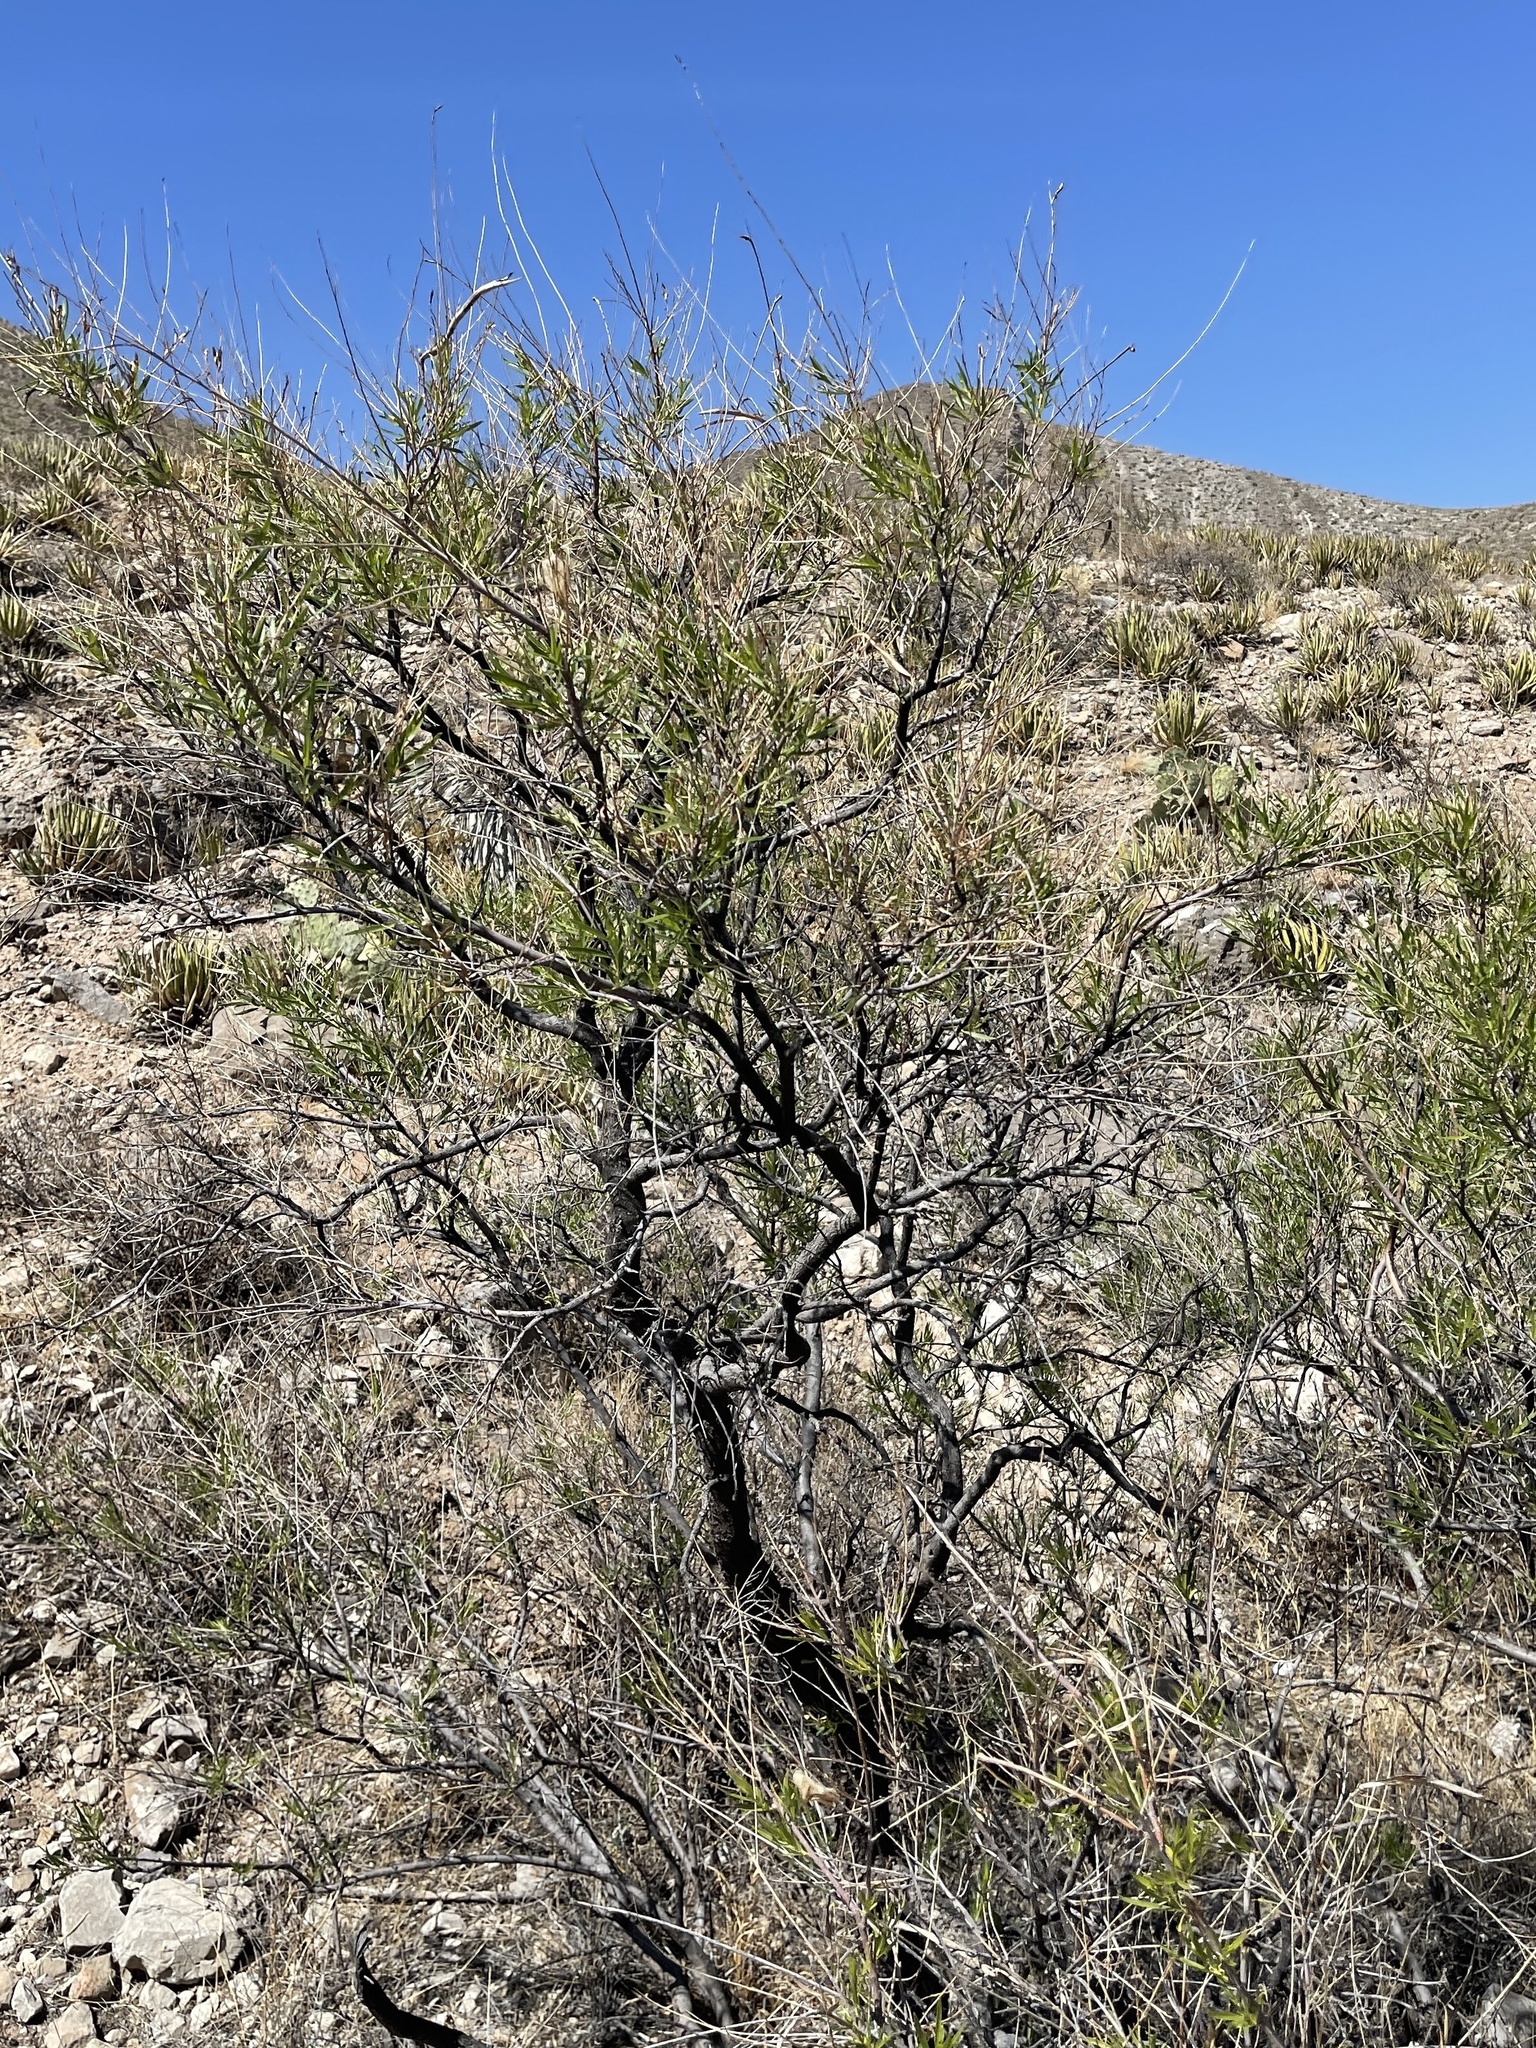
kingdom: Plantae
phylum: Tracheophyta
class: Magnoliopsida
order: Lamiales
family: Bignoniaceae
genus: Chilopsis
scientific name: Chilopsis linearis
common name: Desert-willow
